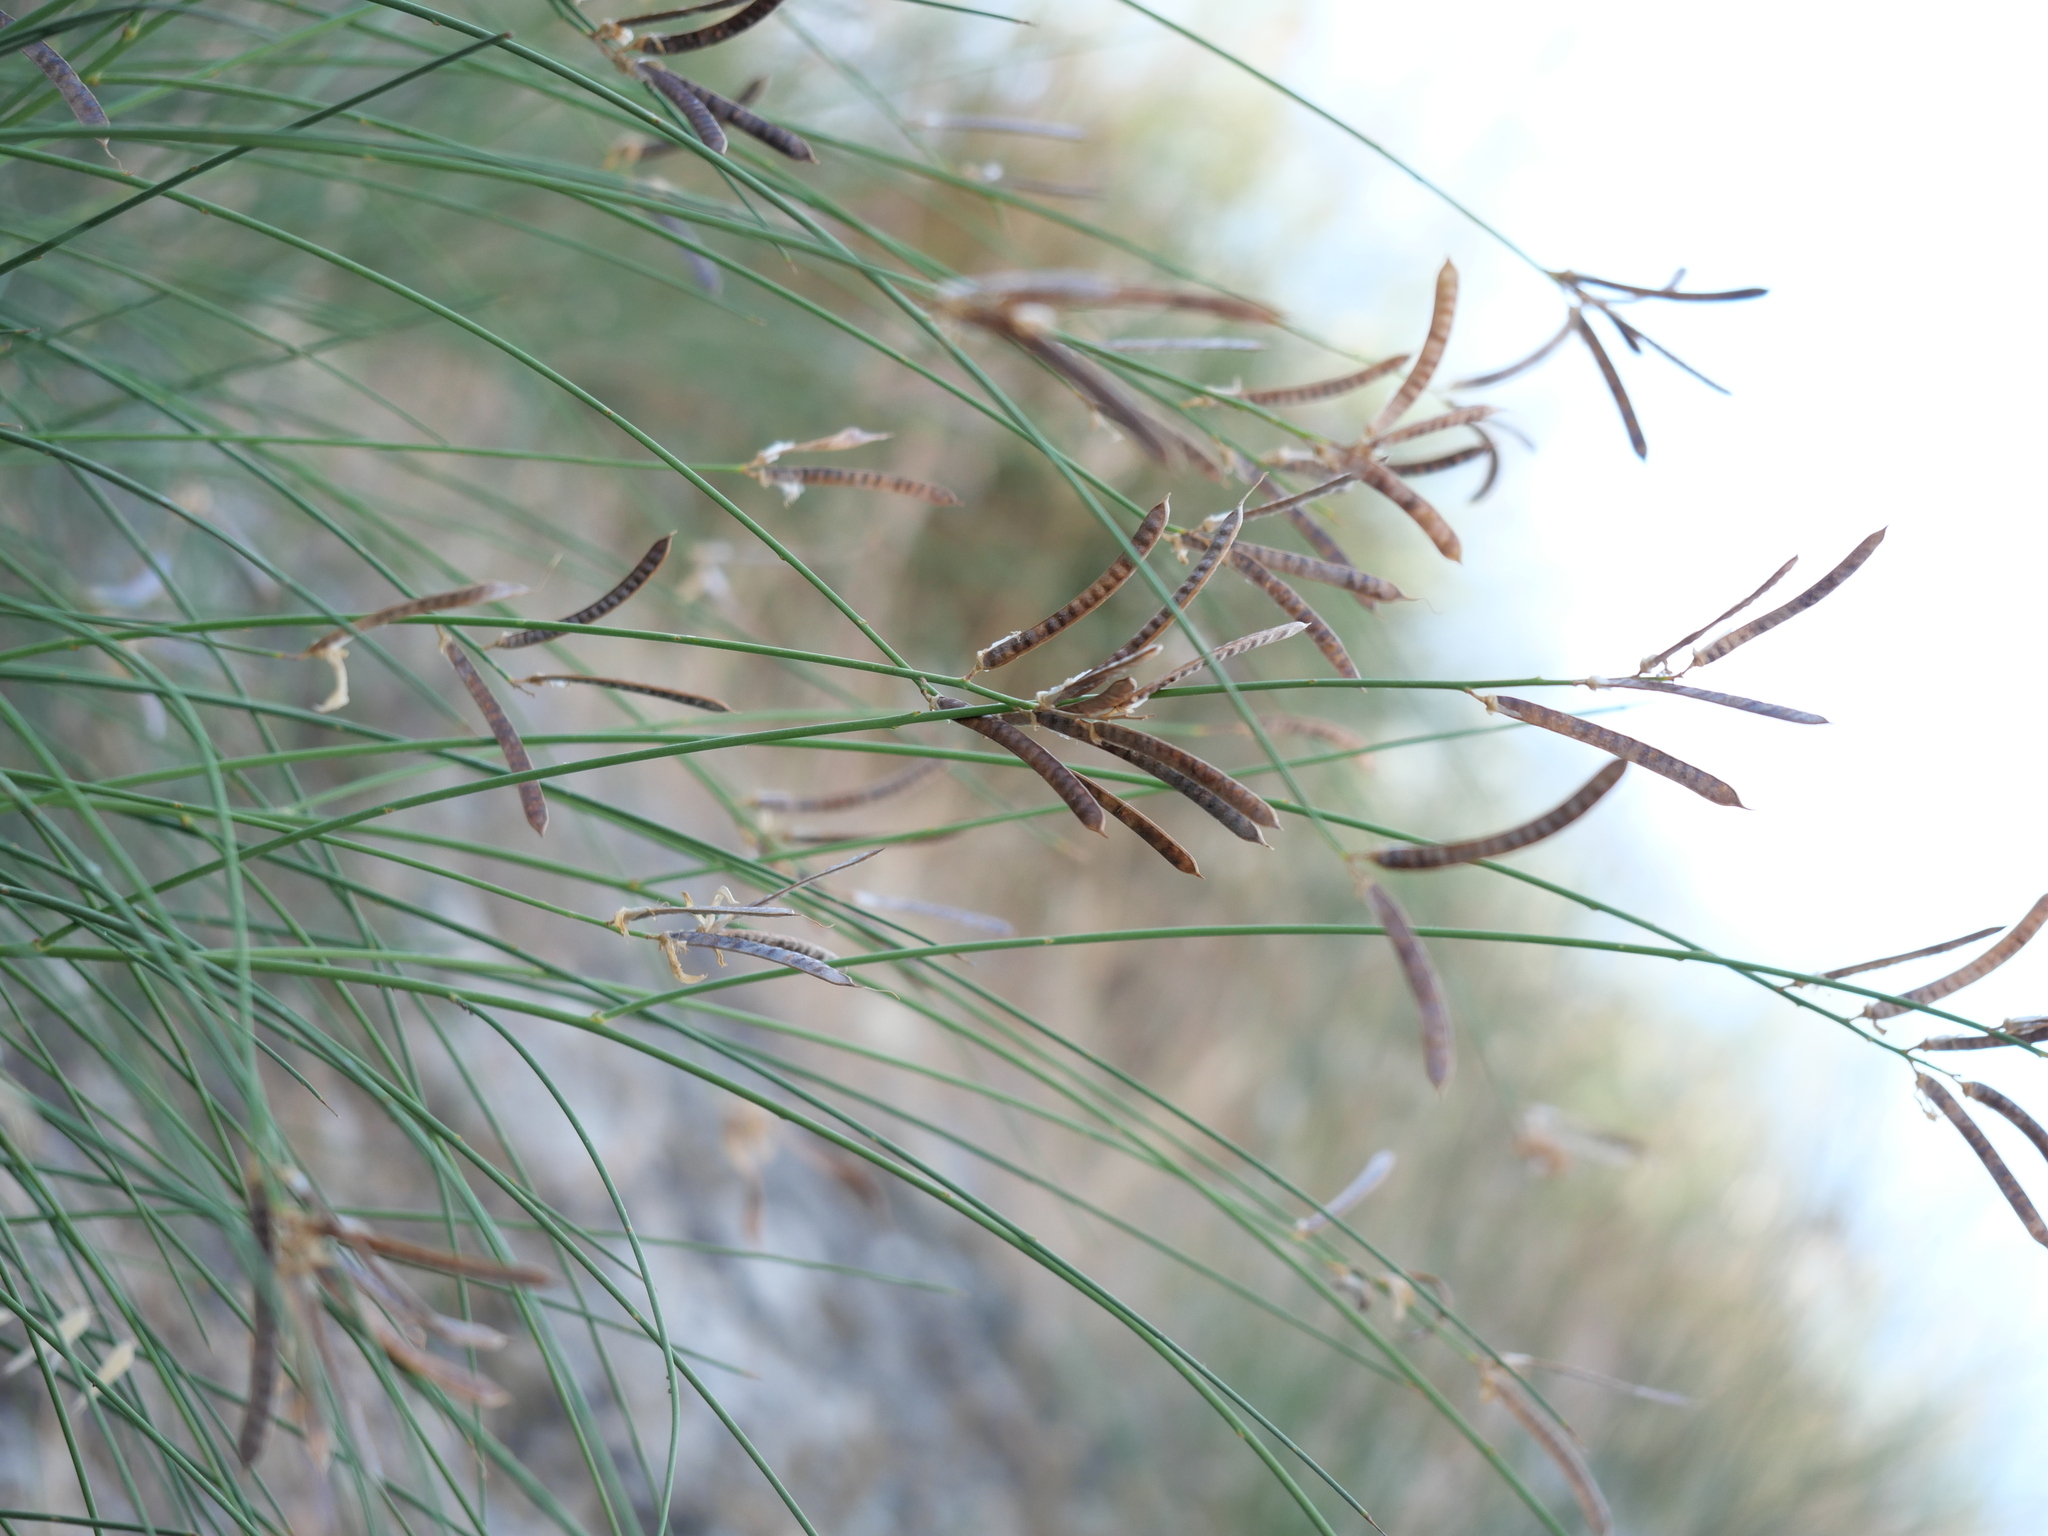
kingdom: Plantae
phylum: Tracheophyta
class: Magnoliopsida
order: Fabales
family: Fabaceae
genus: Spartium
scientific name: Spartium junceum
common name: Spanish broom
